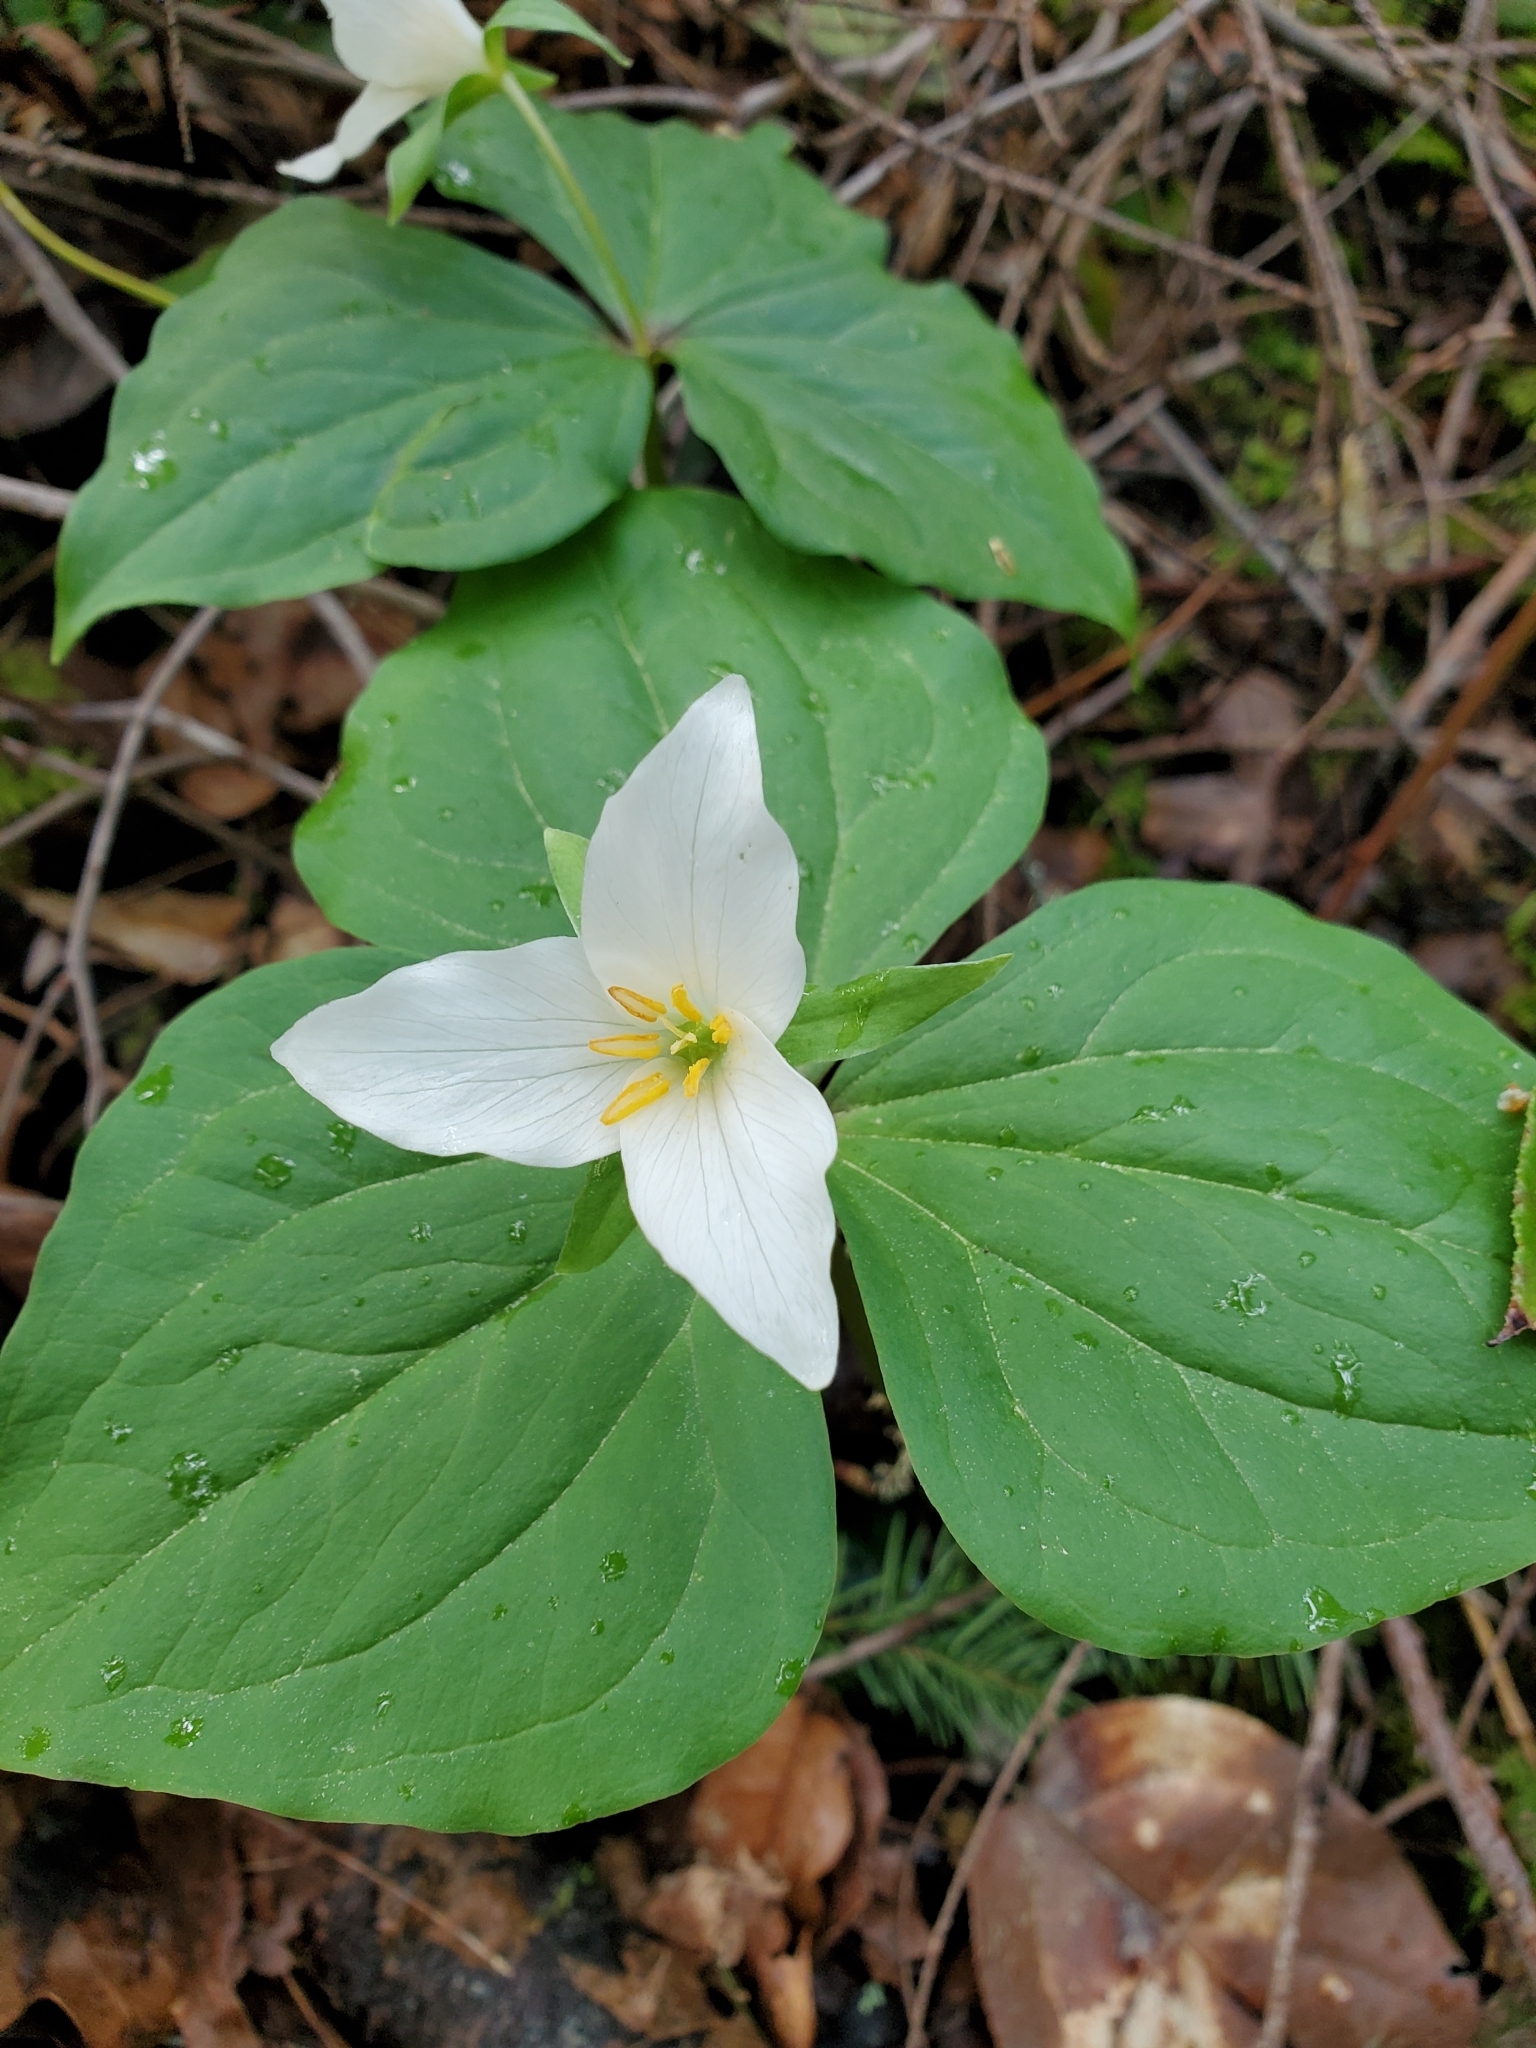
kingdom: Plantae
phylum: Tracheophyta
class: Liliopsida
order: Liliales
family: Melanthiaceae
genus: Trillium
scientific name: Trillium ovatum
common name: Pacific trillium
